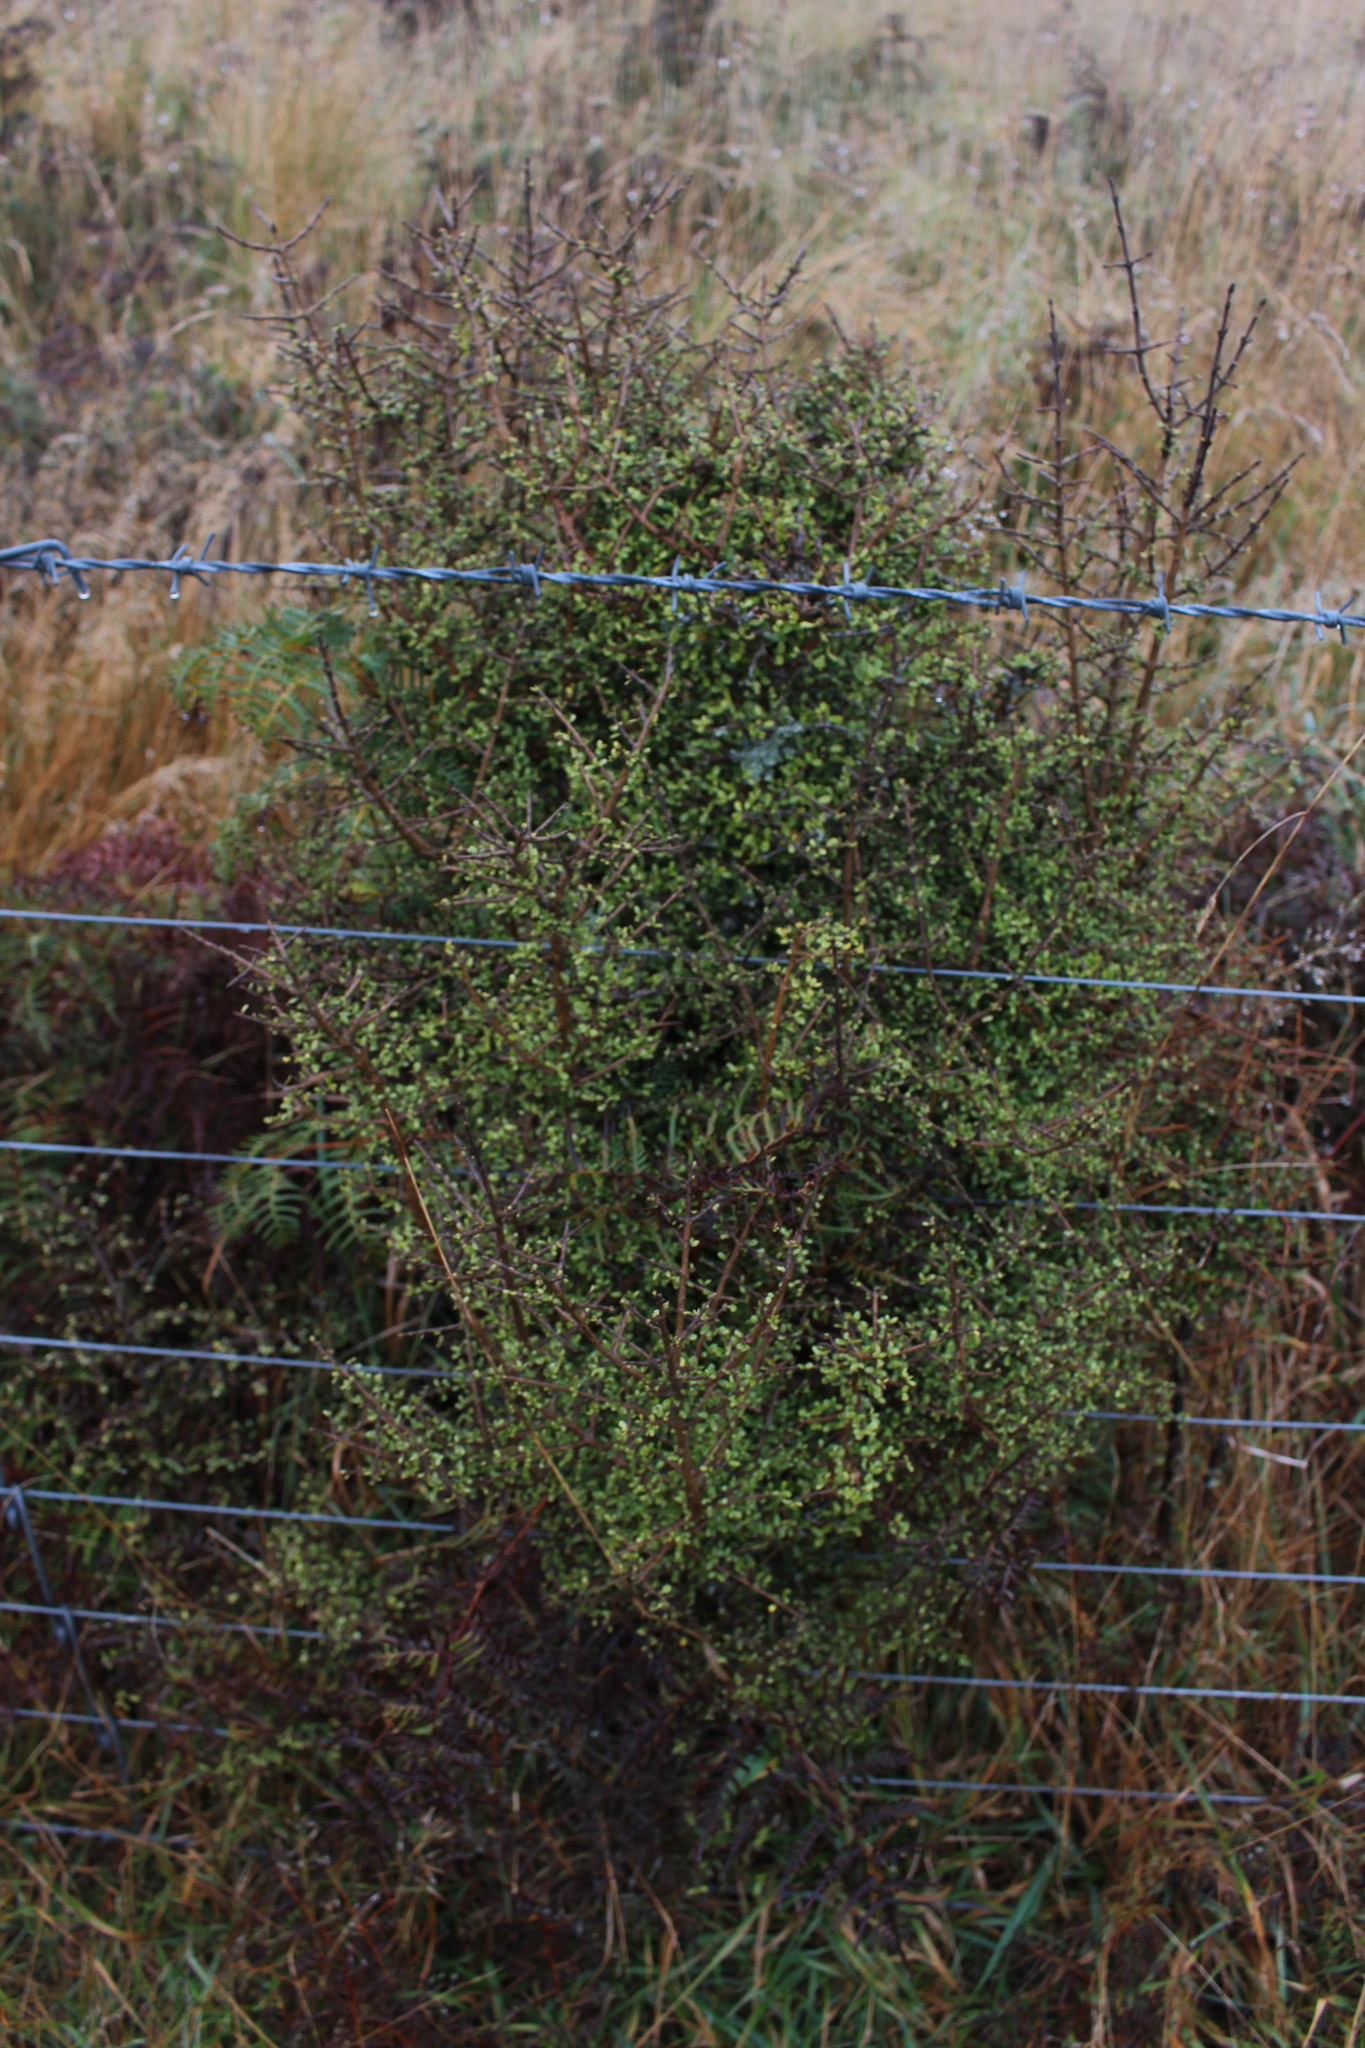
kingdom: Plantae
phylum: Tracheophyta
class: Magnoliopsida
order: Gentianales
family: Rubiaceae
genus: Coprosma
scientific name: Coprosma dumosa
